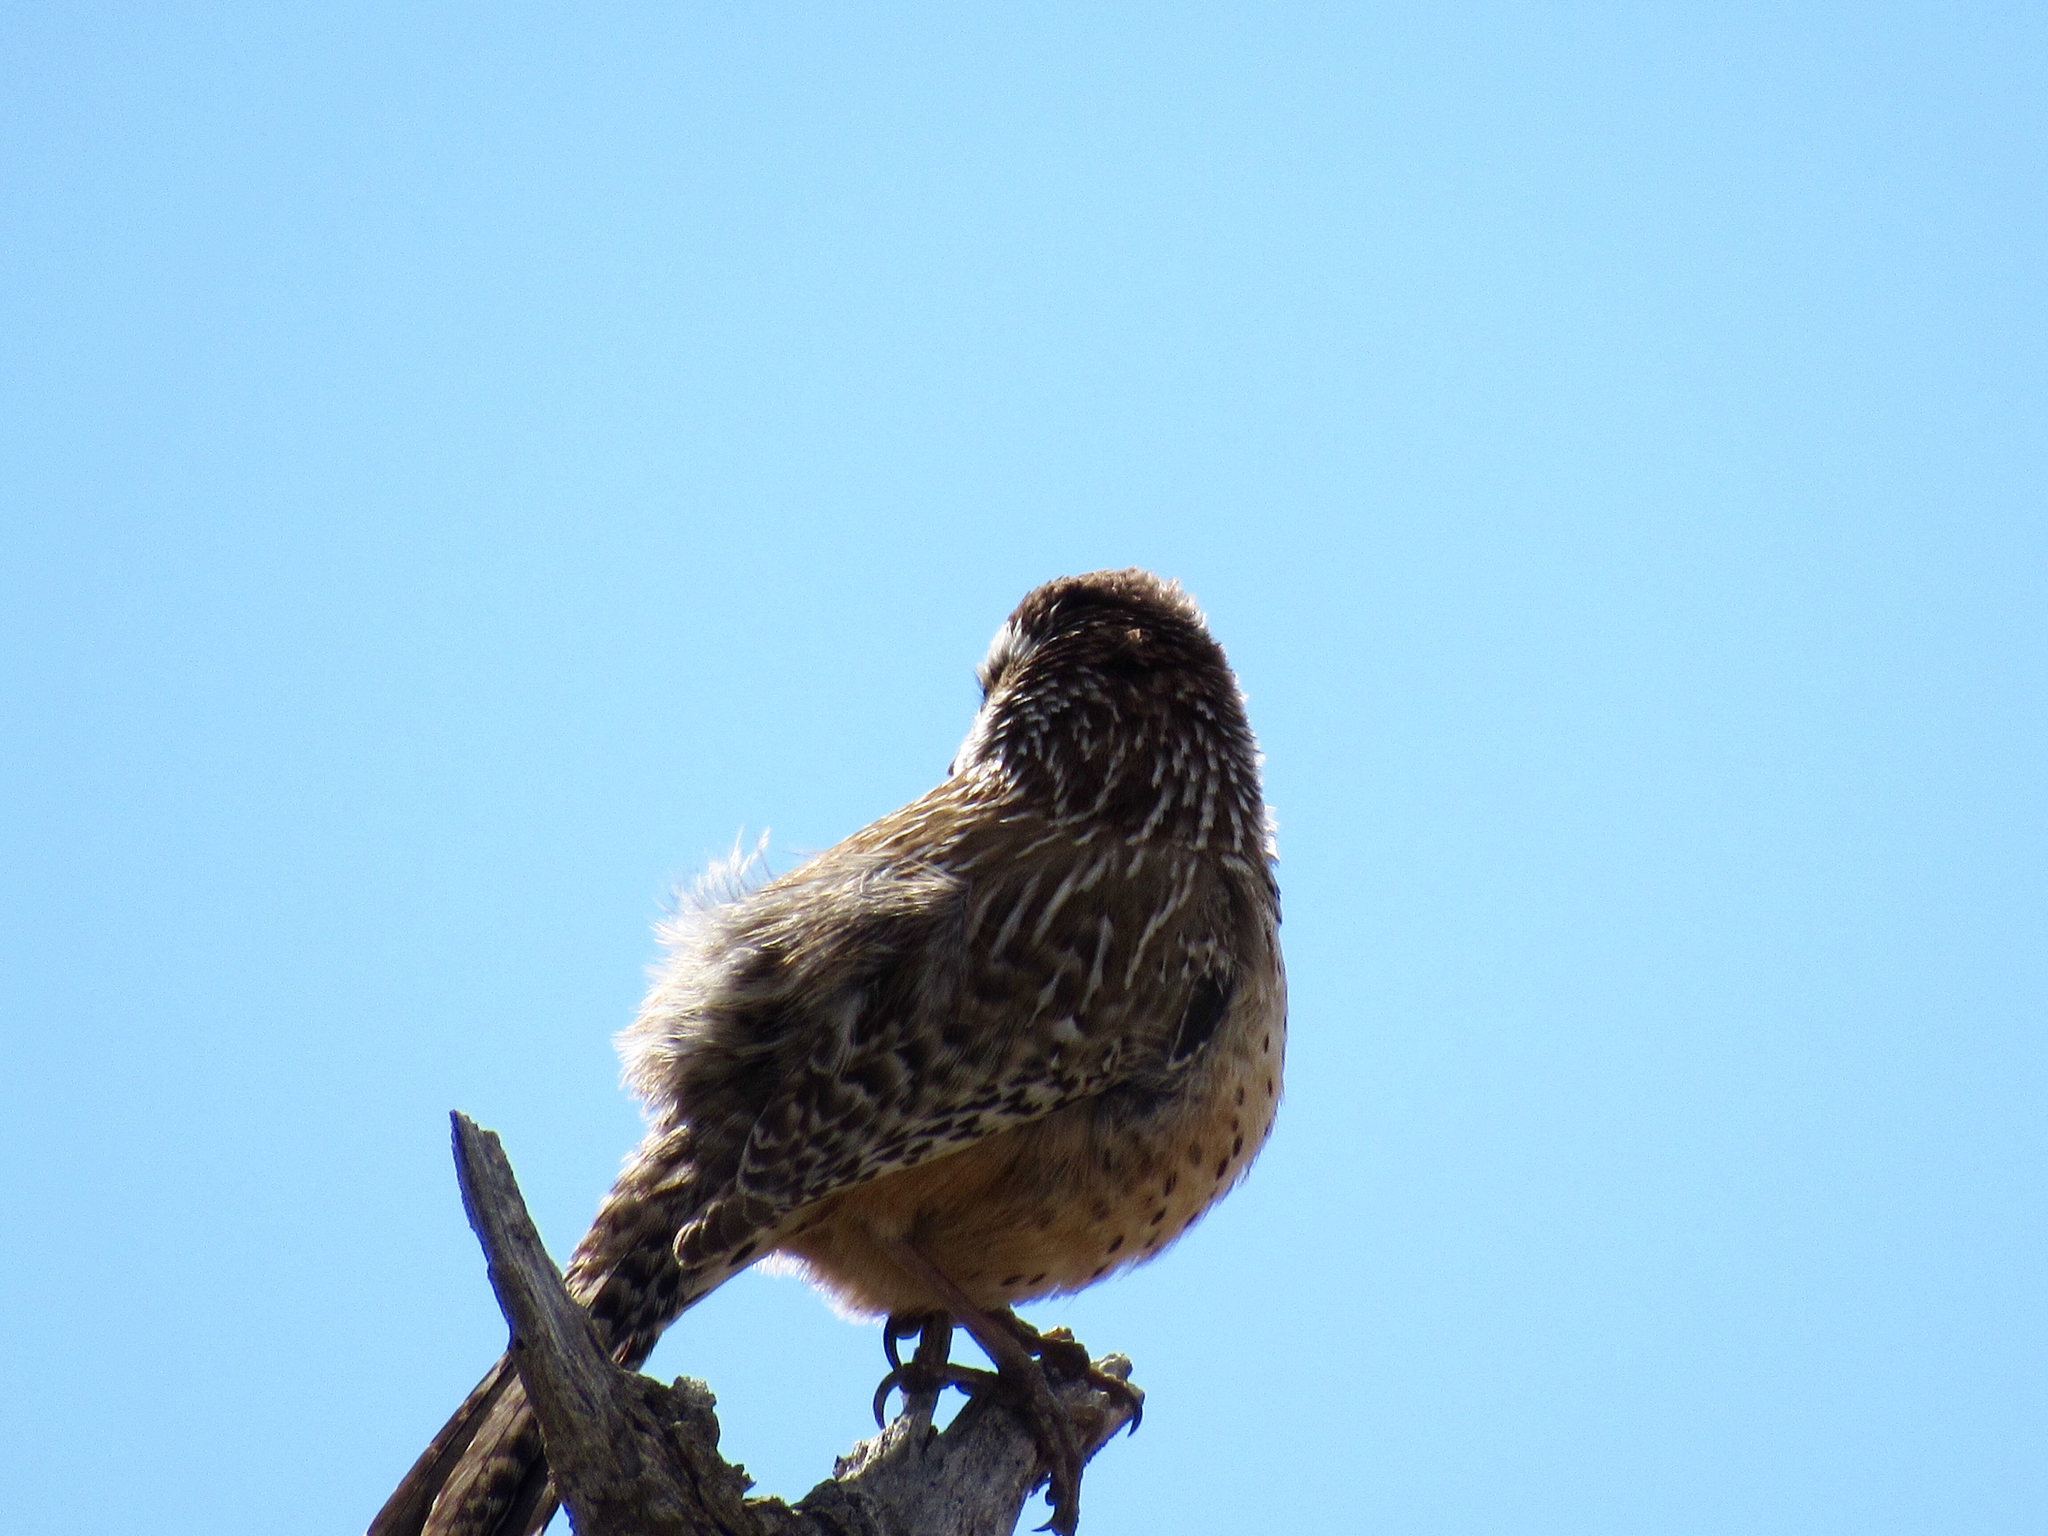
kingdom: Animalia
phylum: Chordata
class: Aves
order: Passeriformes
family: Troglodytidae
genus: Campylorhynchus
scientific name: Campylorhynchus brunneicapillus
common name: Cactus wren
